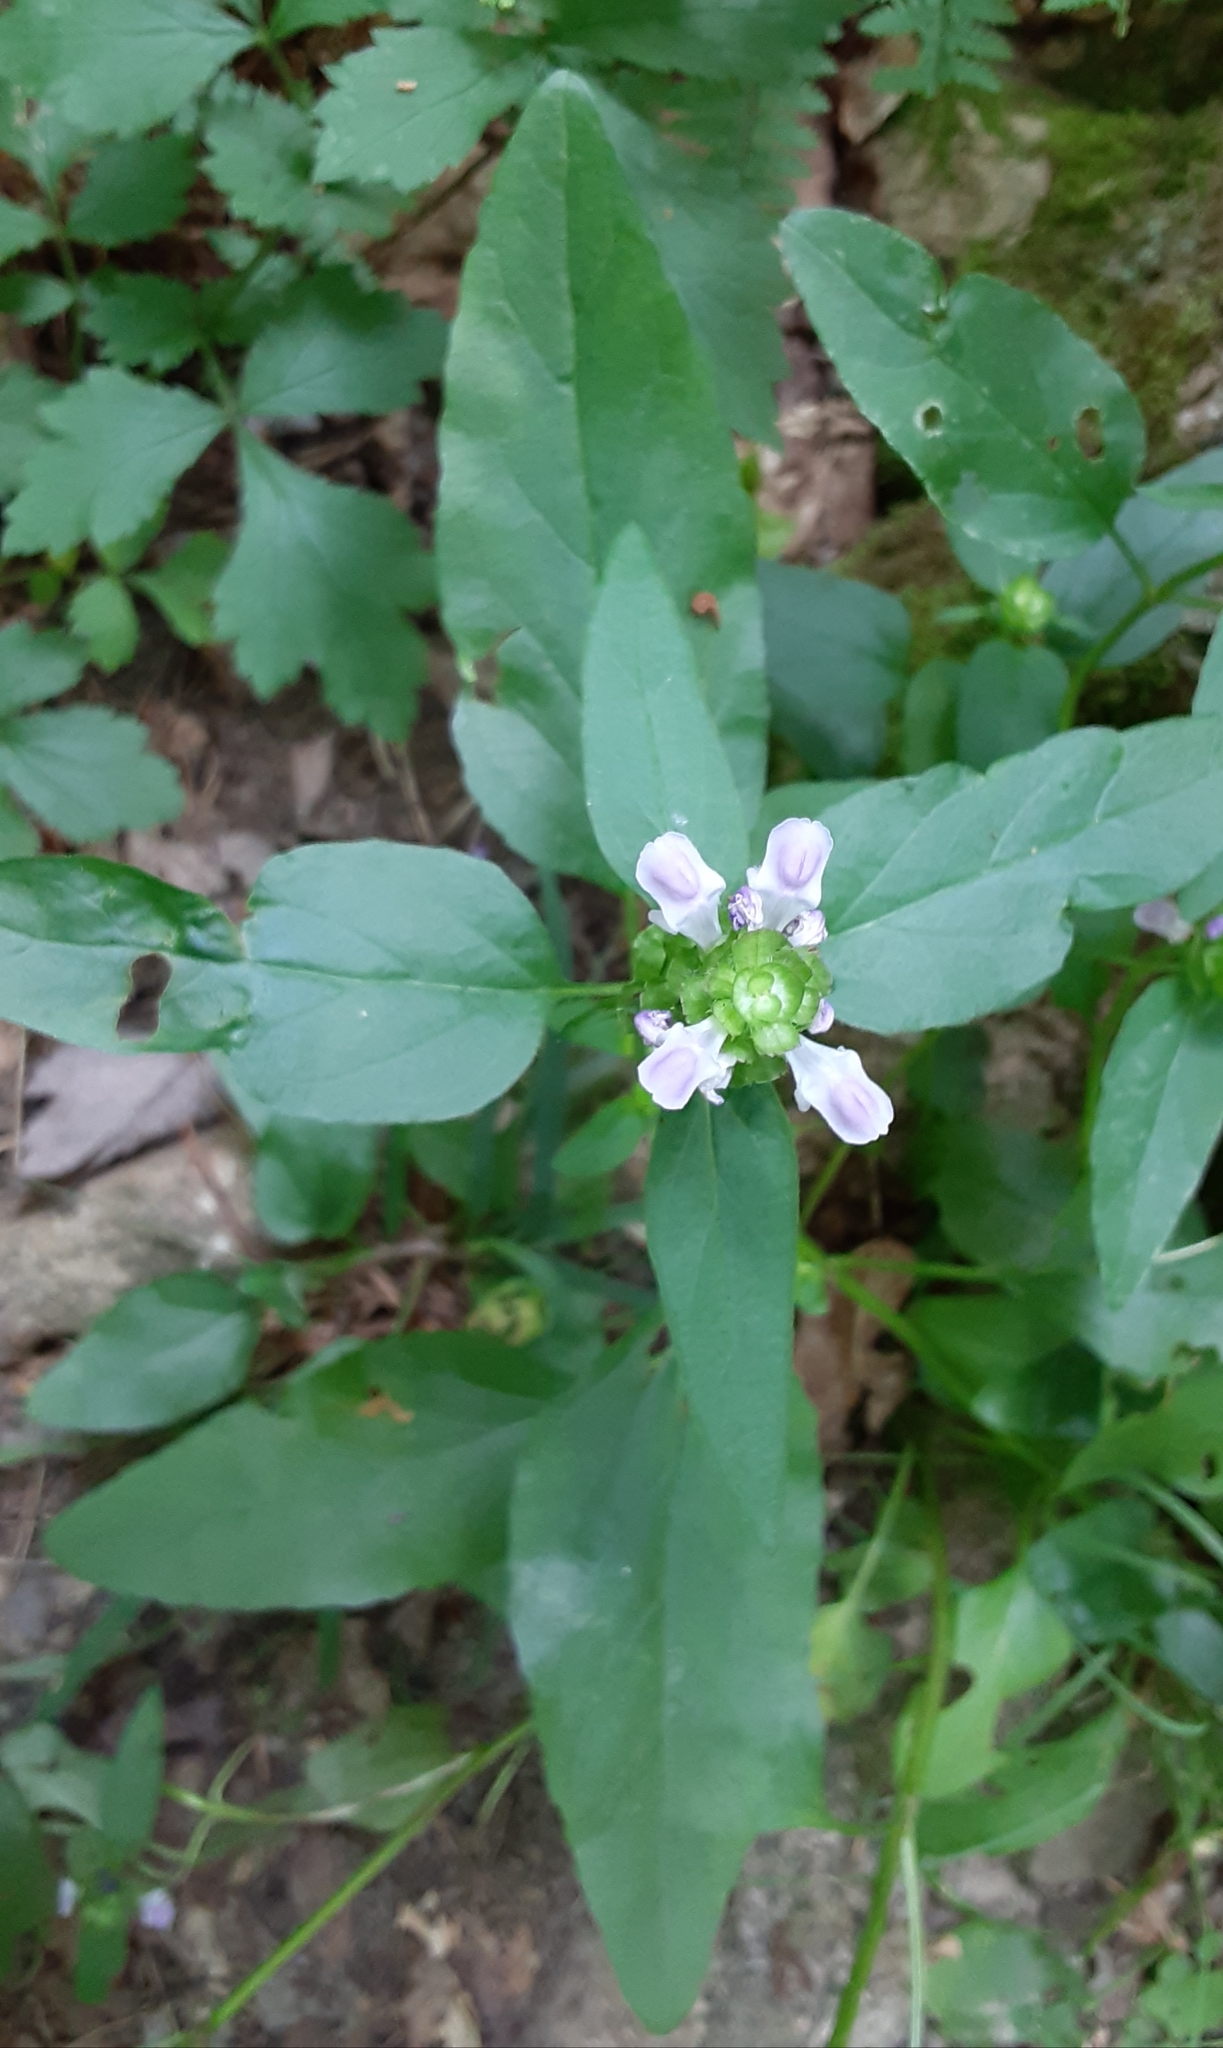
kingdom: Plantae
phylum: Tracheophyta
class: Magnoliopsida
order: Lamiales
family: Lamiaceae
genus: Prunella
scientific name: Prunella vulgaris
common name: Heal-all
